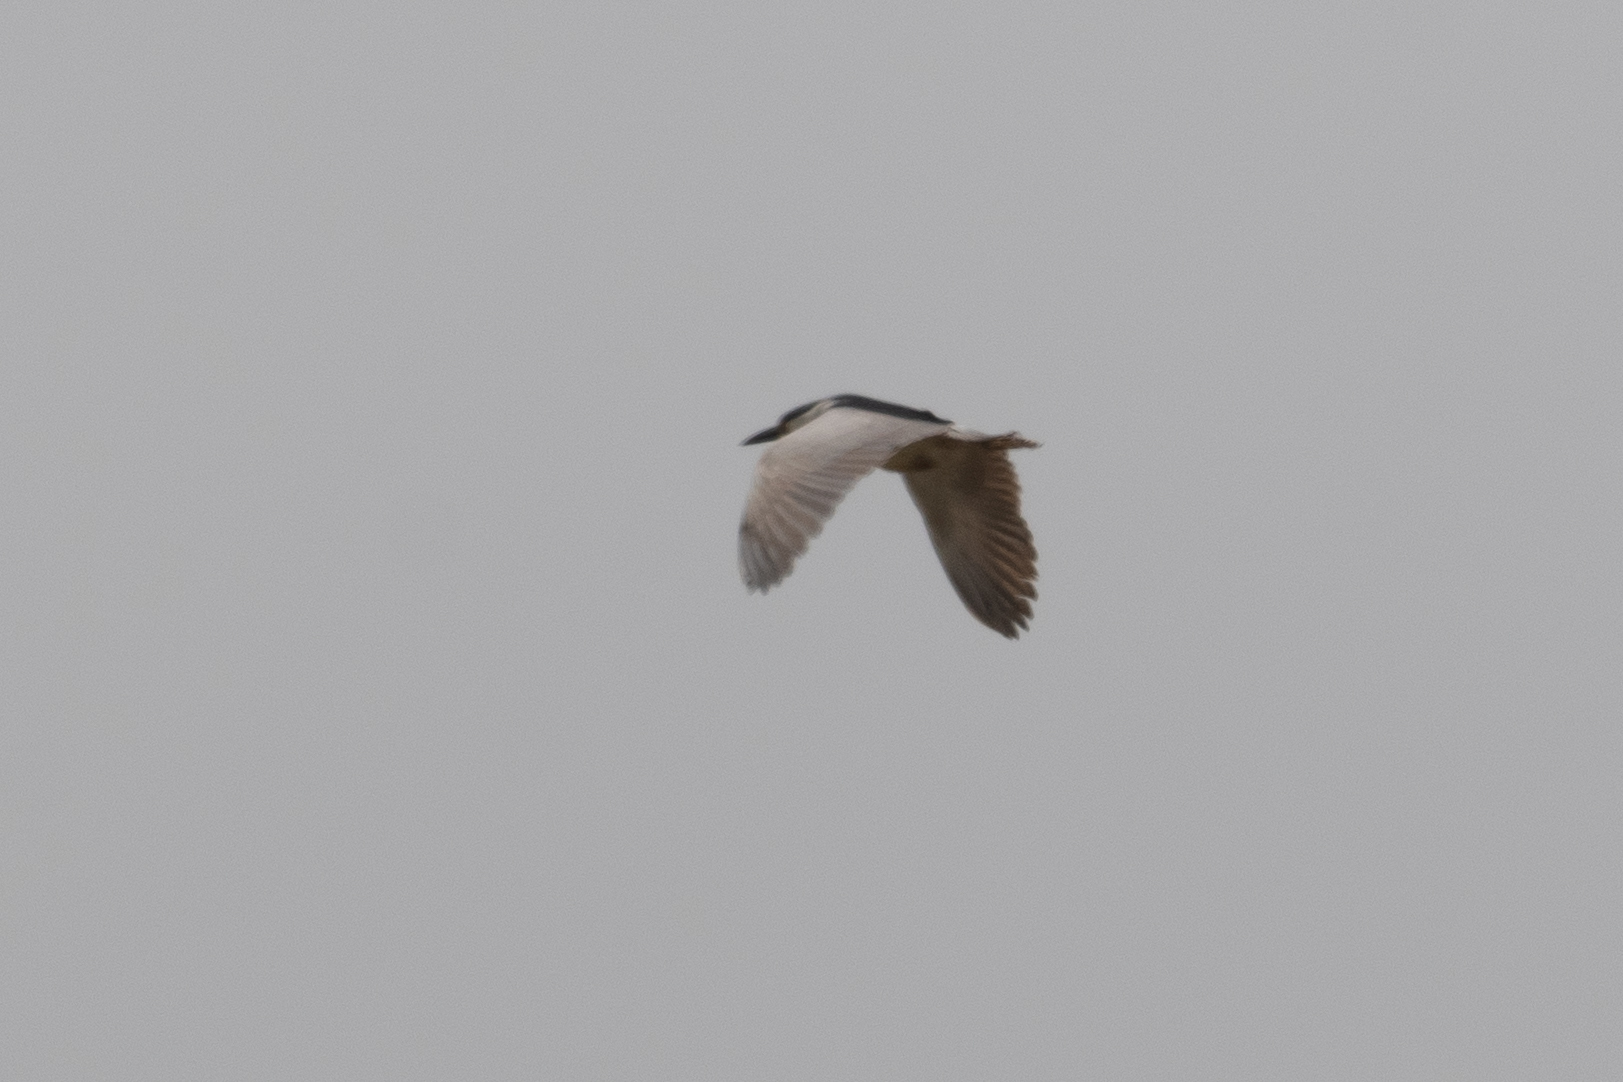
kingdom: Animalia
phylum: Chordata
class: Aves
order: Pelecaniformes
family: Ardeidae
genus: Nycticorax
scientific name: Nycticorax nycticorax
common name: Black-crowned night heron
